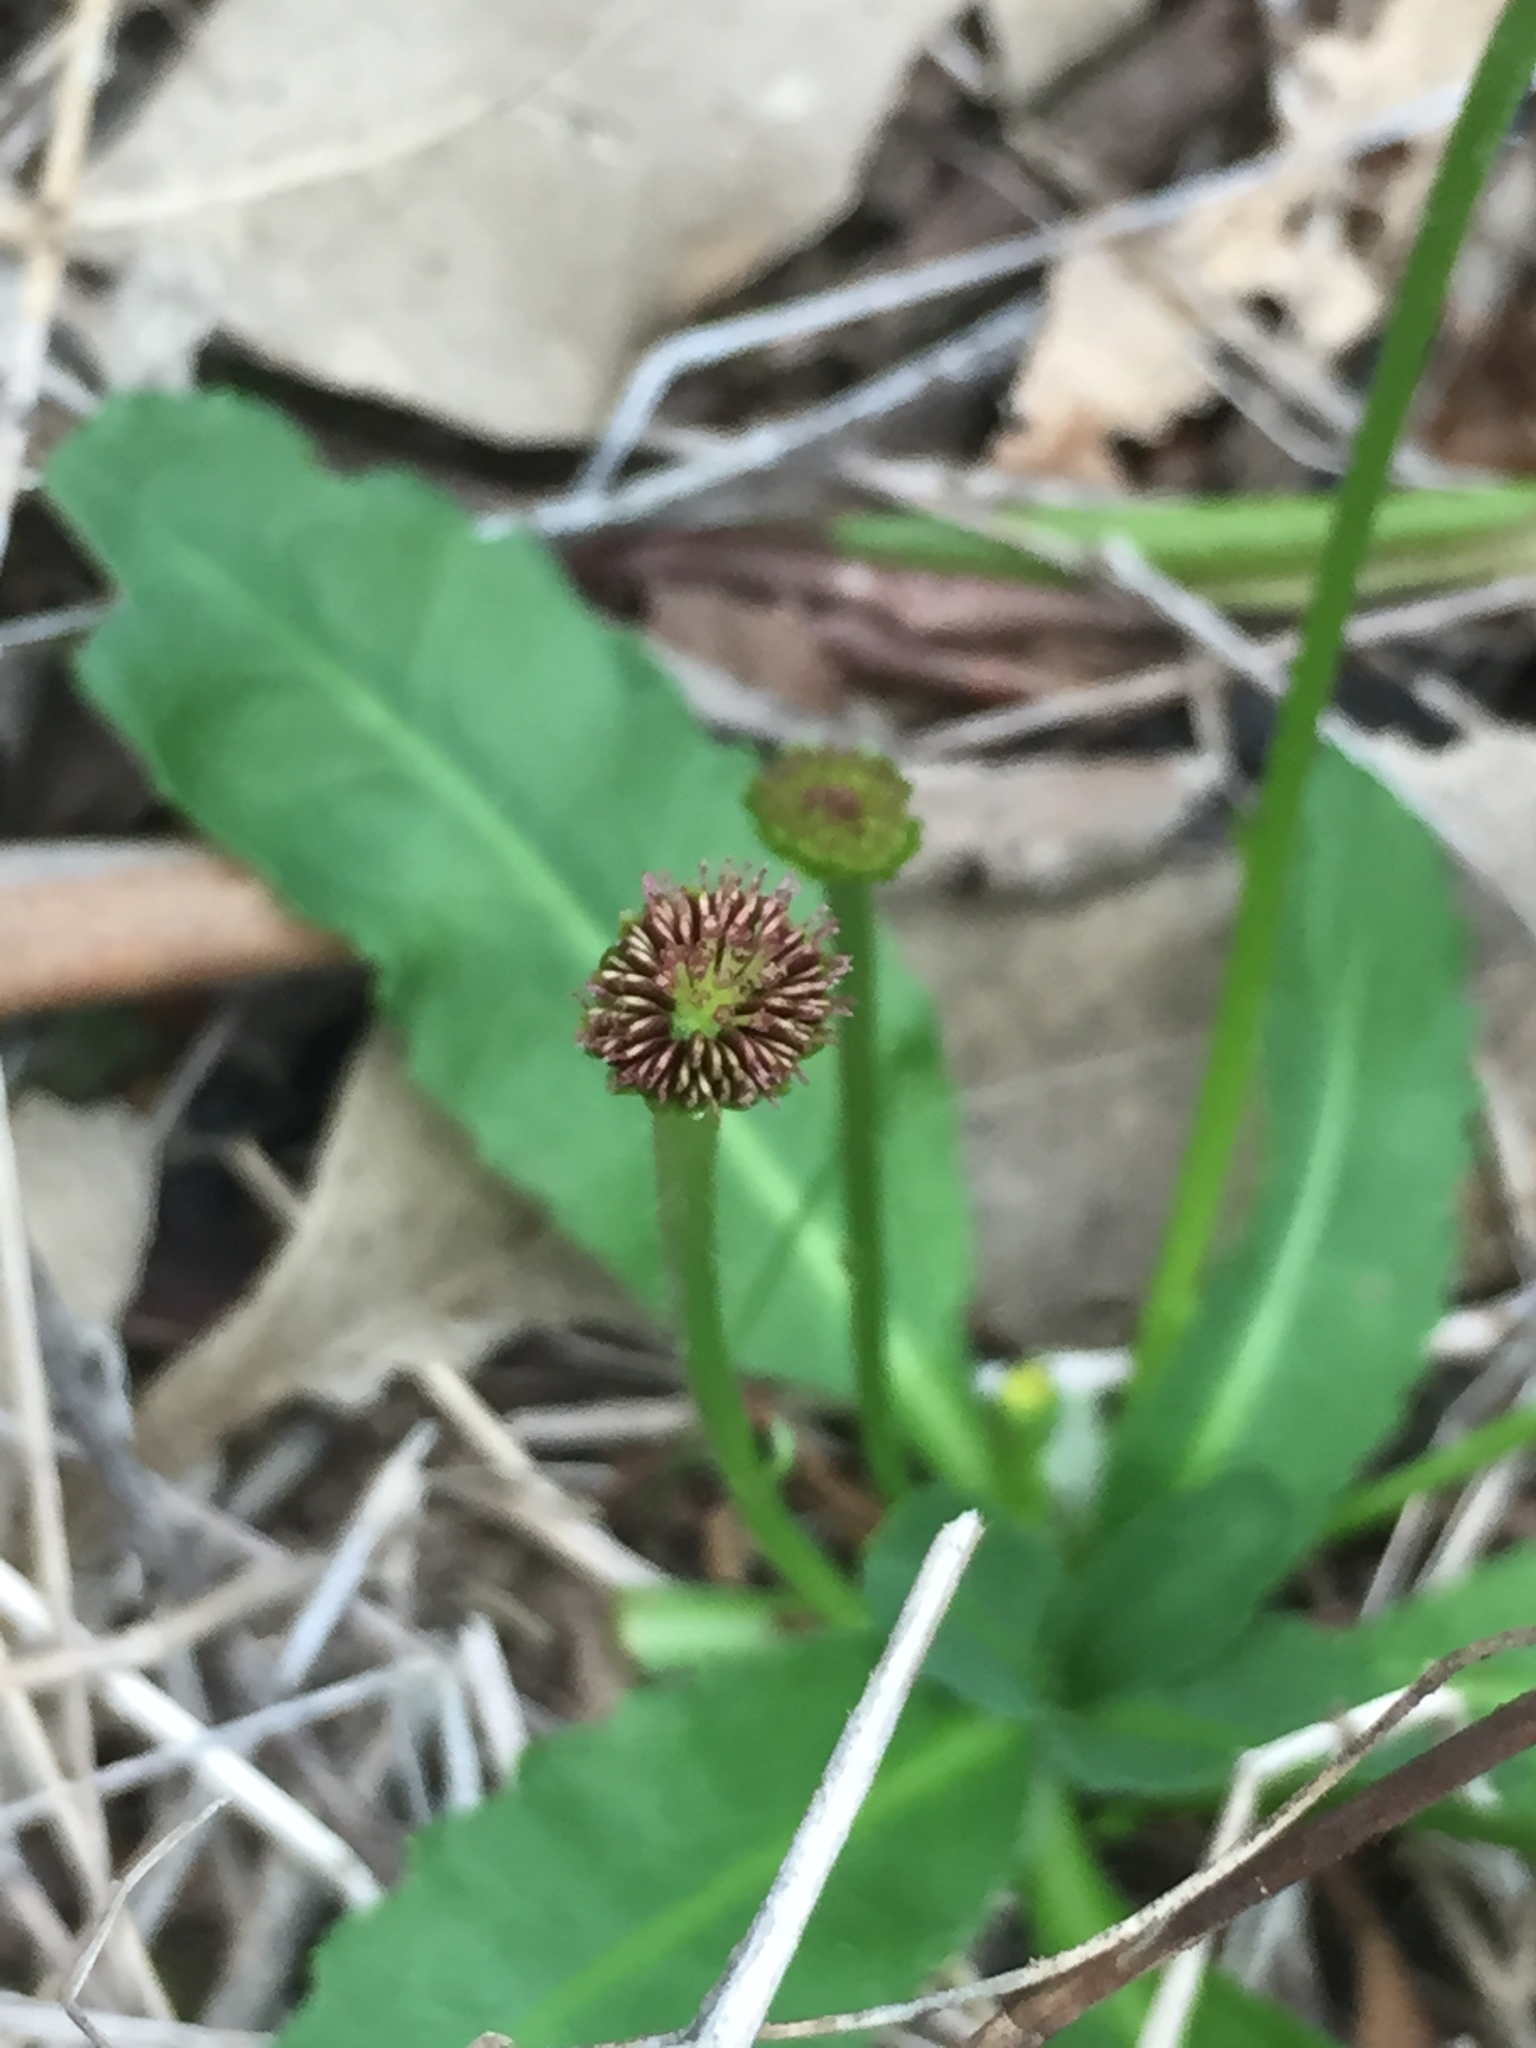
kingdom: Plantae
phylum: Tracheophyta
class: Magnoliopsida
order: Asterales
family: Asteraceae
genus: Solenogyne
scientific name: Solenogyne dominii
